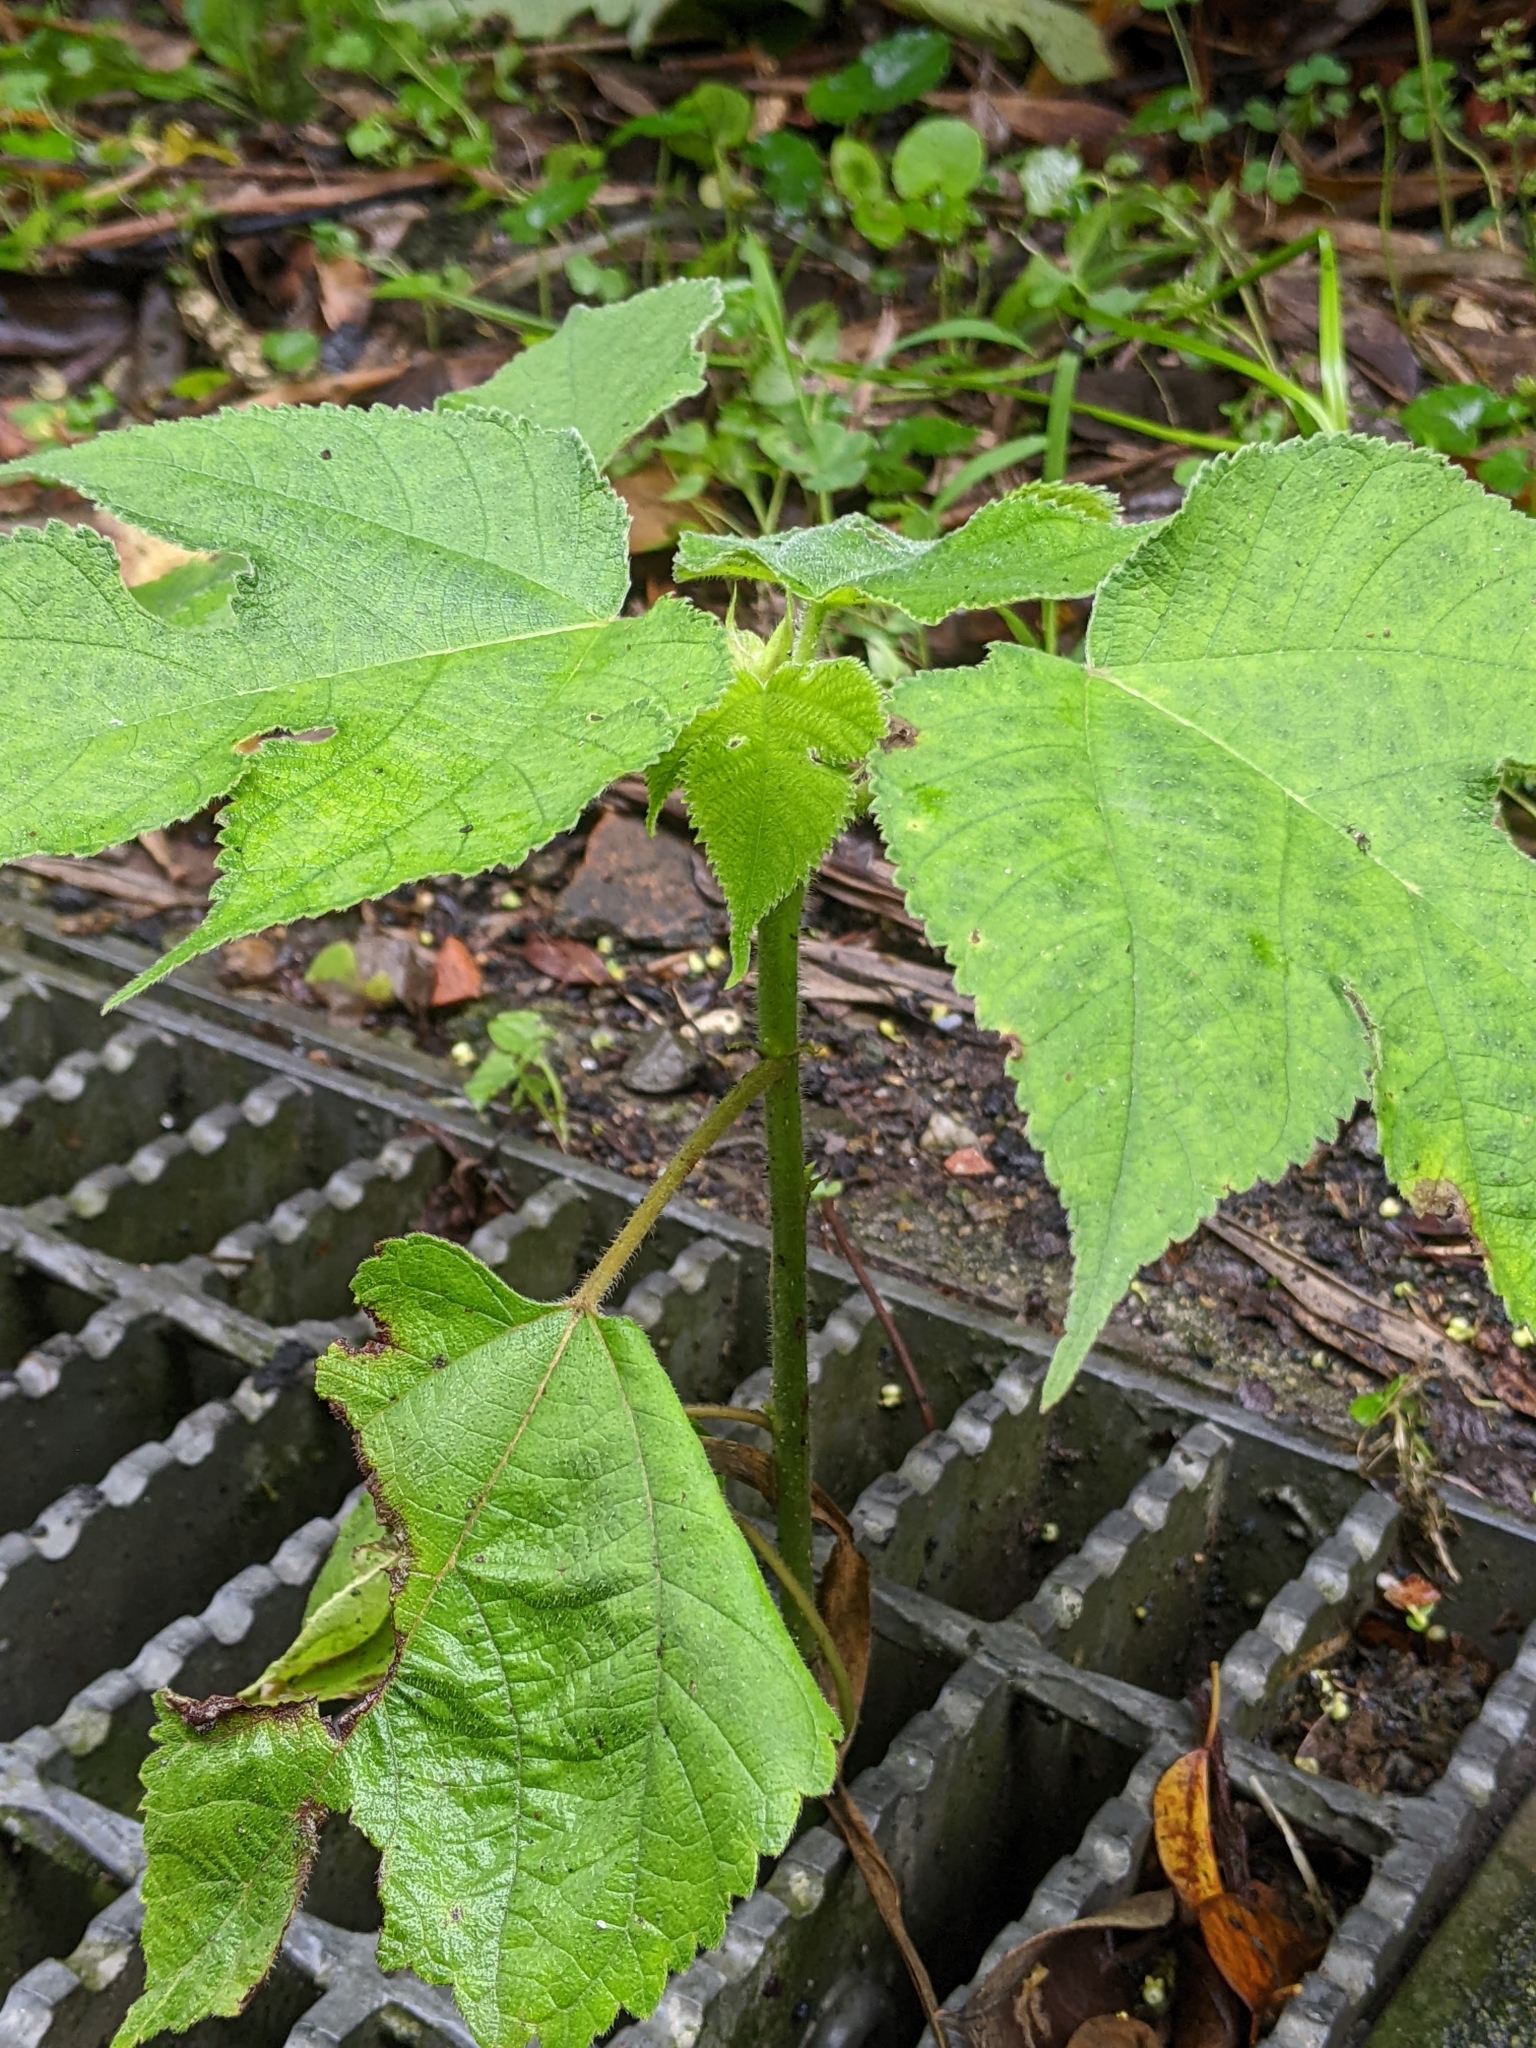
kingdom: Plantae
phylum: Tracheophyta
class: Magnoliopsida
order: Rosales
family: Moraceae
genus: Broussonetia
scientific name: Broussonetia papyrifera
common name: Paper mulberry
